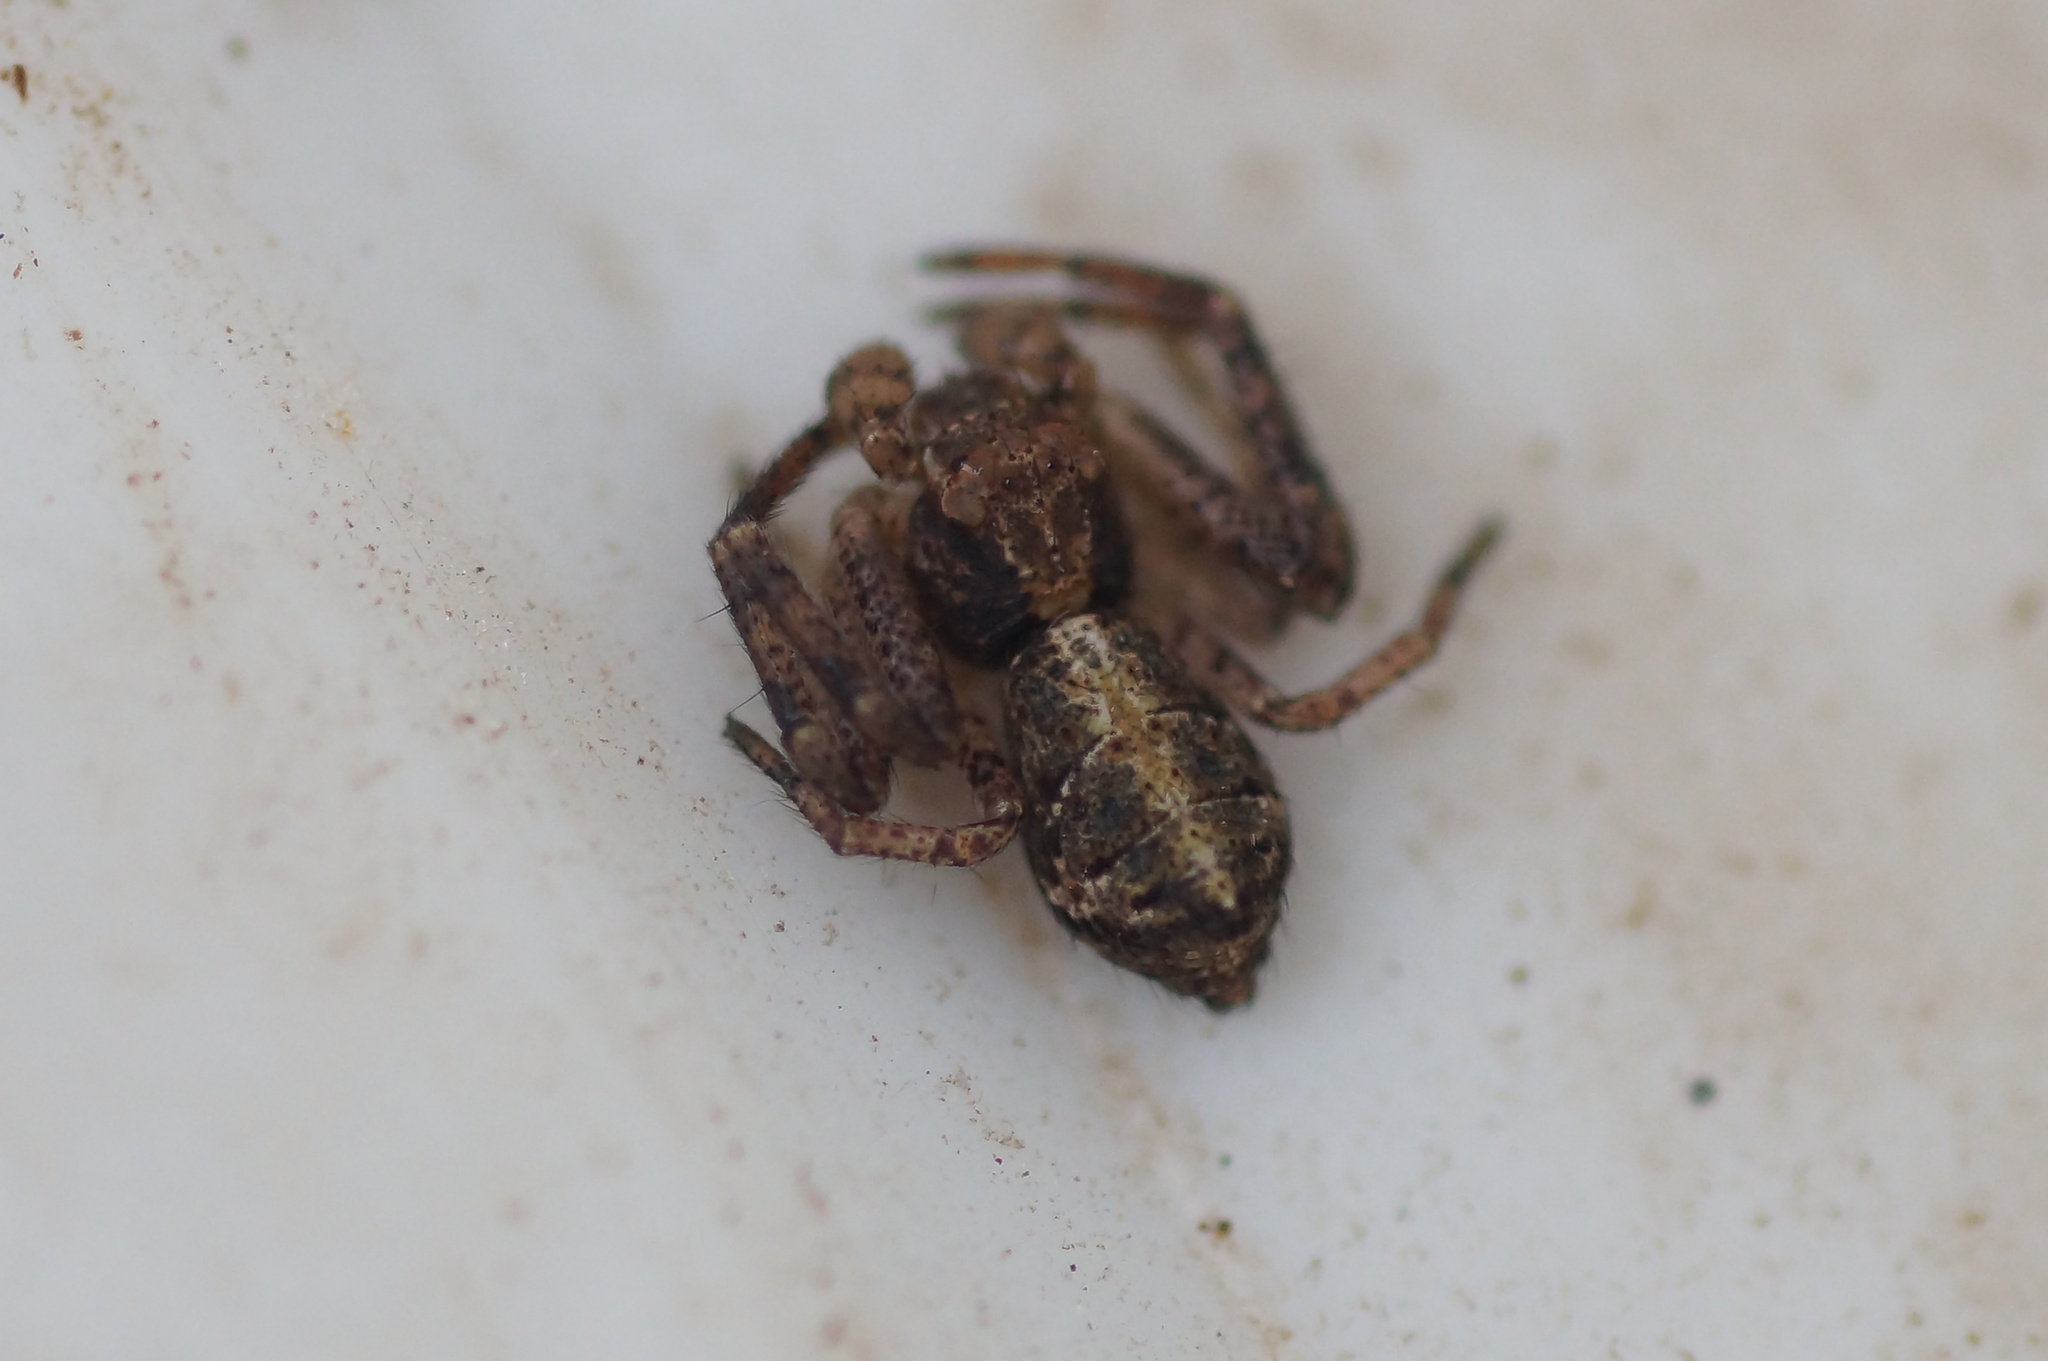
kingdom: Animalia
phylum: Arthropoda
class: Arachnida
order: Araneae
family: Thomisidae
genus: Tmarus
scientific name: Tmarus piger
